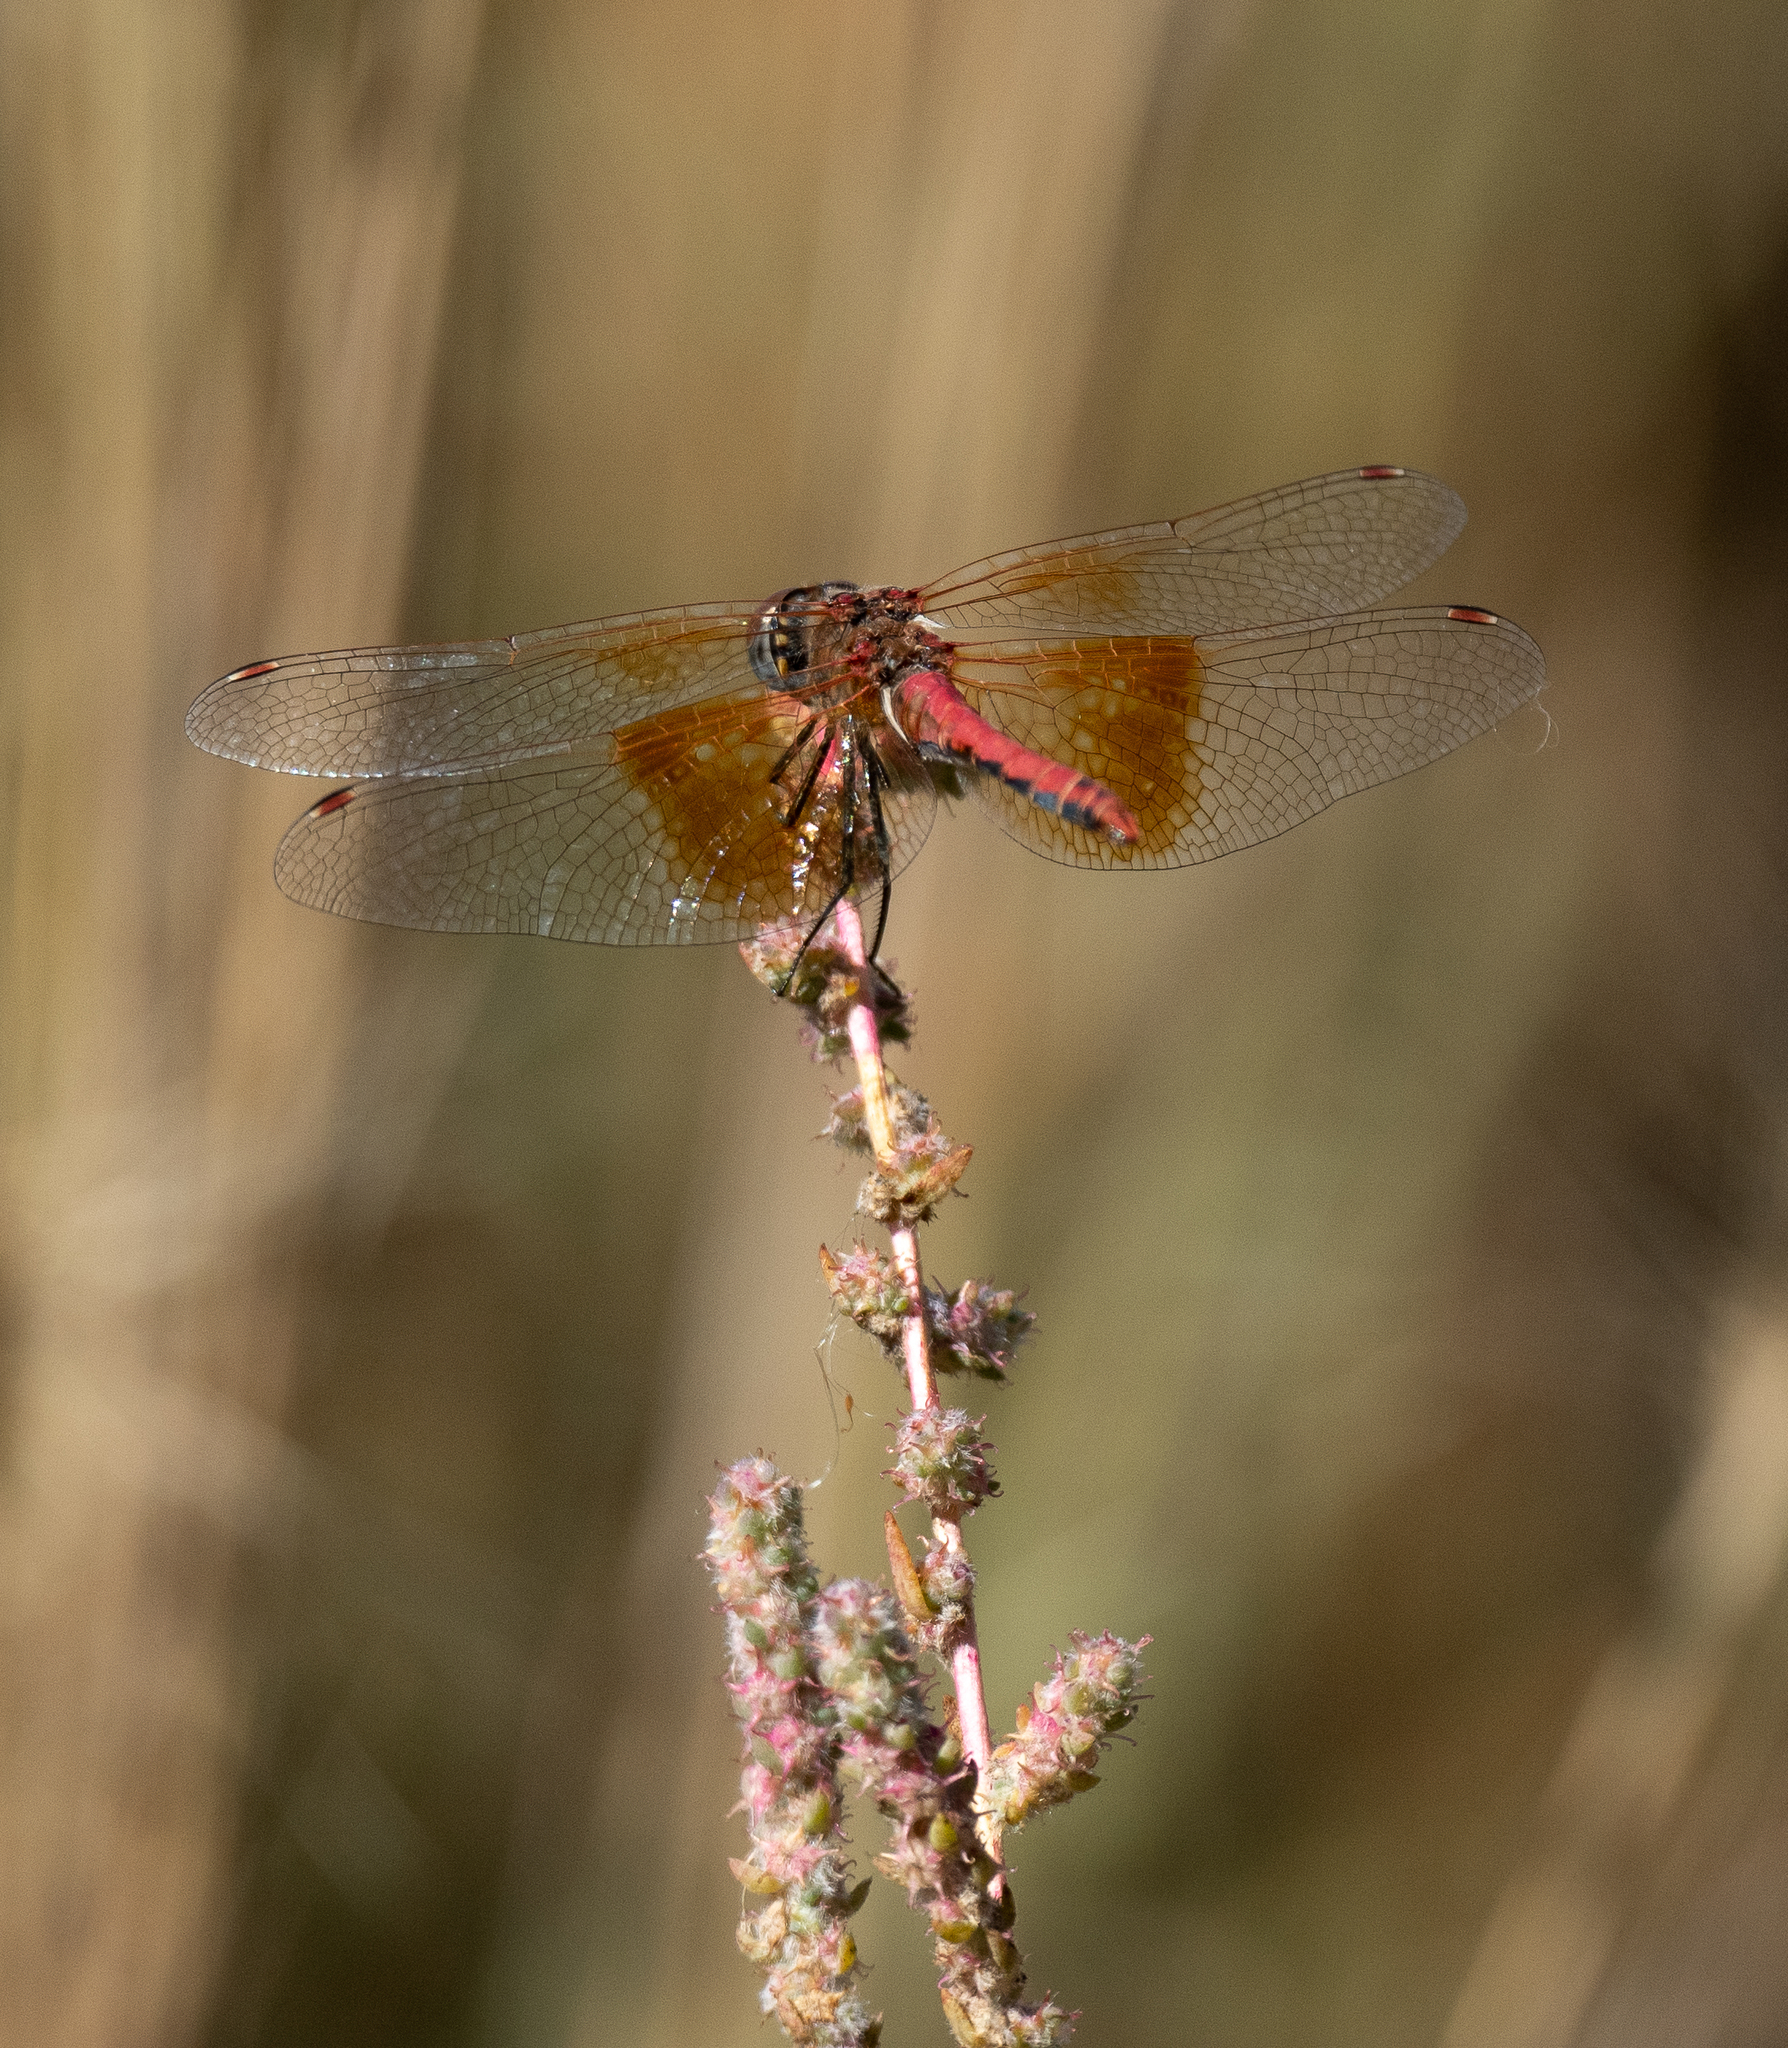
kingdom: Animalia
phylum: Arthropoda
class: Insecta
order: Odonata
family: Libellulidae
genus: Sympetrum
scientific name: Sympetrum semicinctum
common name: Band-winged meadowhawk
